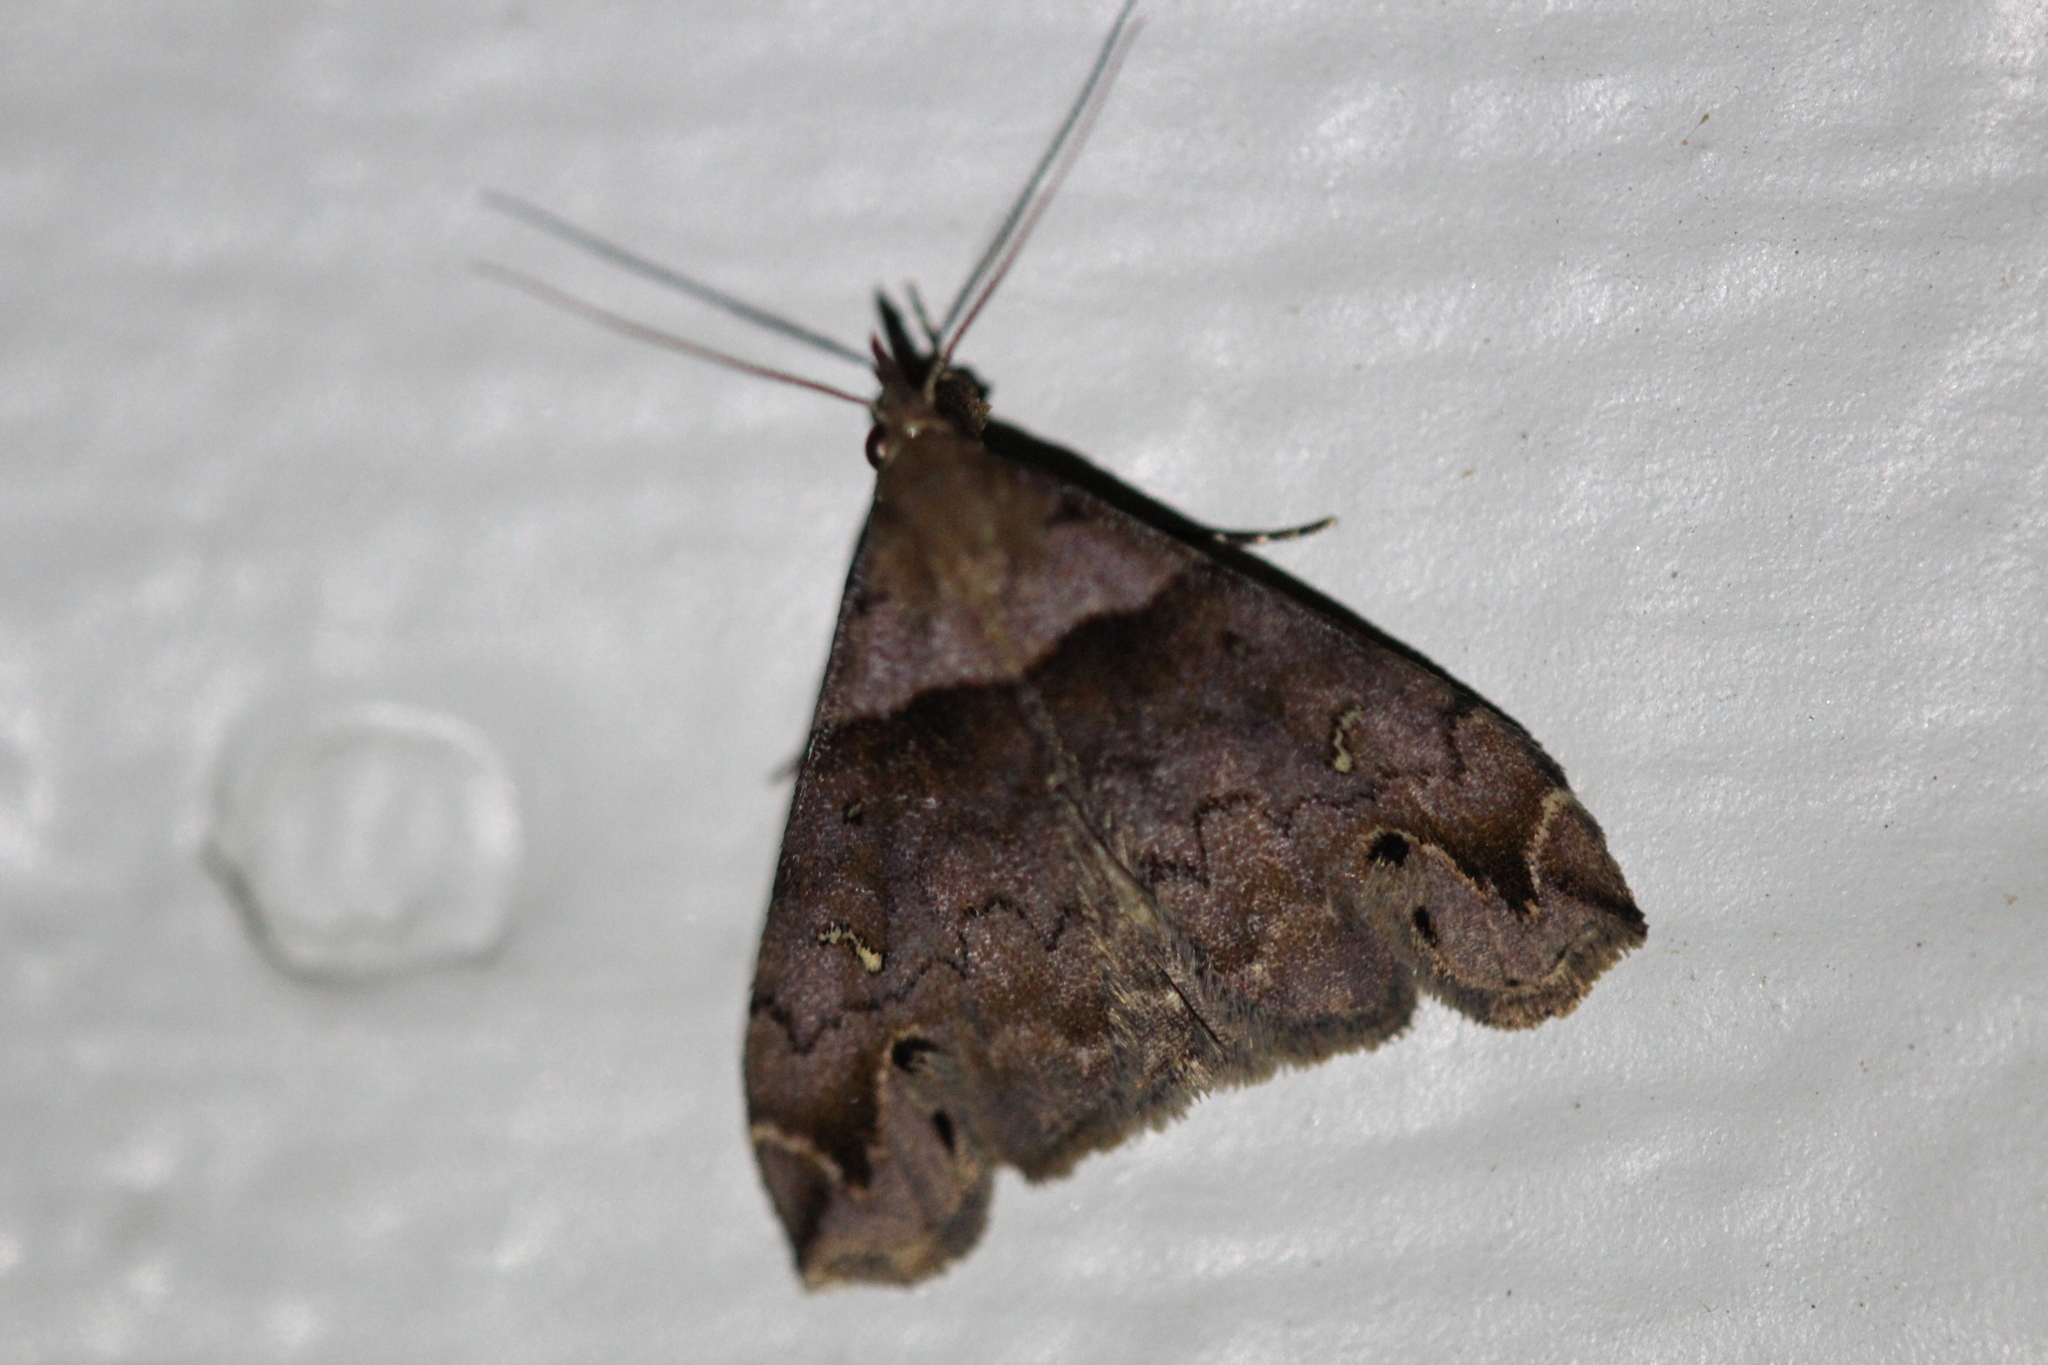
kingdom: Animalia
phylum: Arthropoda
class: Insecta
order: Lepidoptera
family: Erebidae
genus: Lascoria
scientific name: Lascoria ambigualis
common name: Ambiguous moth
